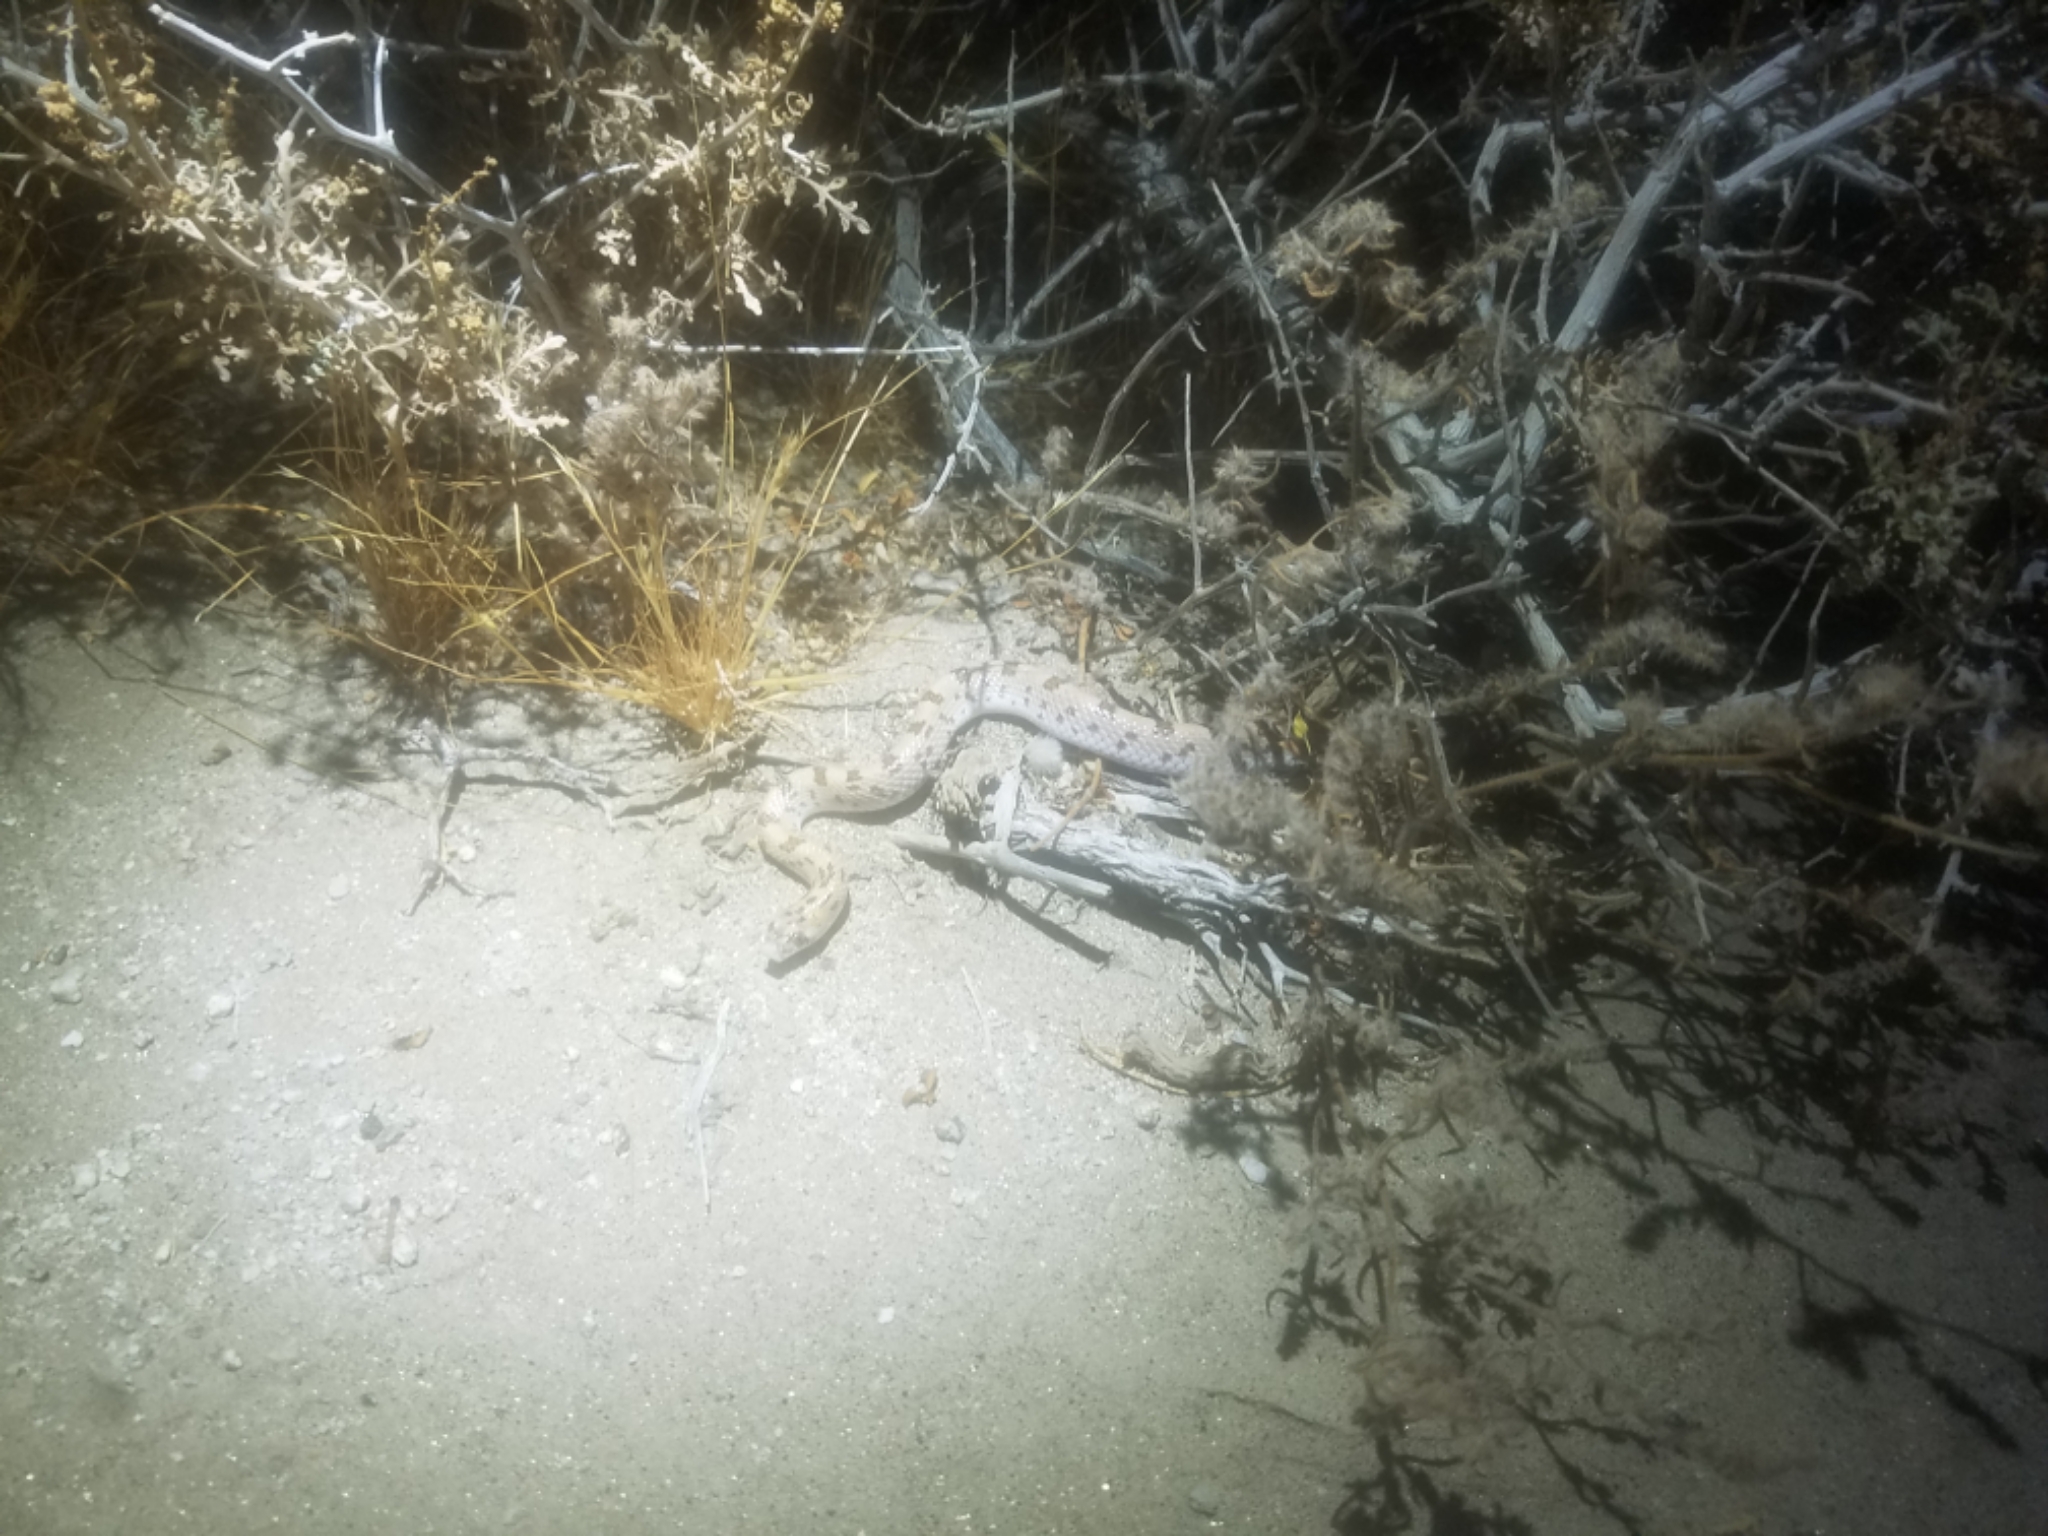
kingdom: Animalia
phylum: Chordata
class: Squamata
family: Colubridae
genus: Phyllorhynchus
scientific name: Phyllorhynchus decurtatus
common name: Spotted leafnose snake
